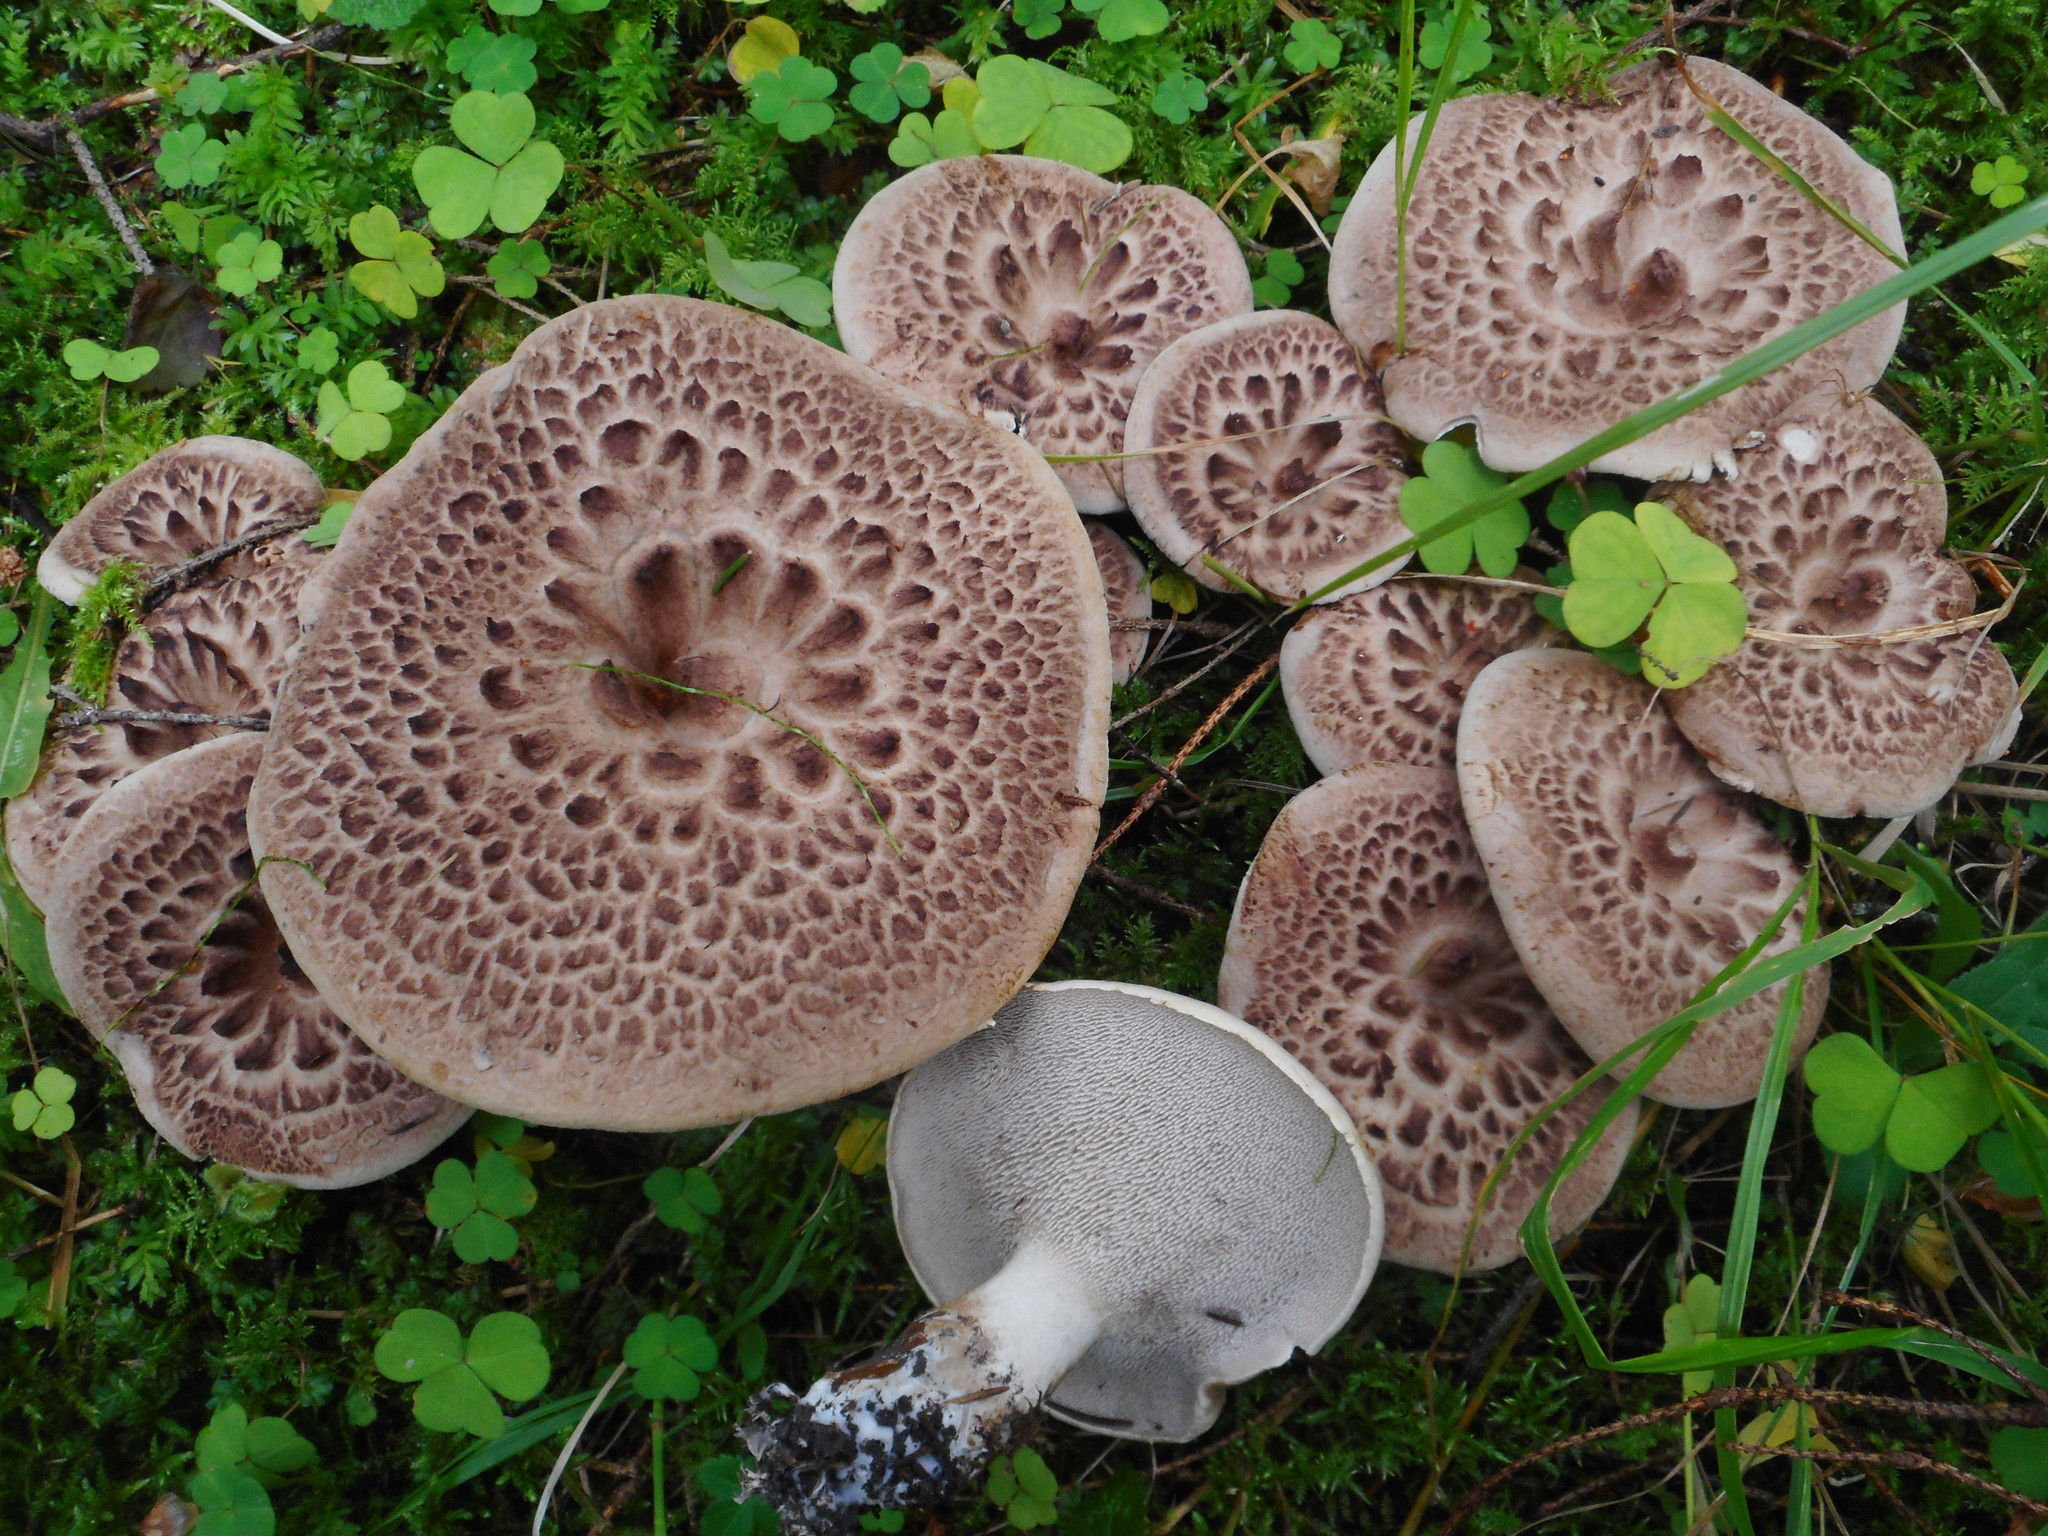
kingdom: Fungi
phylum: Basidiomycota
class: Agaricomycetes
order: Thelephorales
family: Bankeraceae
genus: Sarcodon
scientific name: Sarcodon imbricatus
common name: Shingled hedgehog
